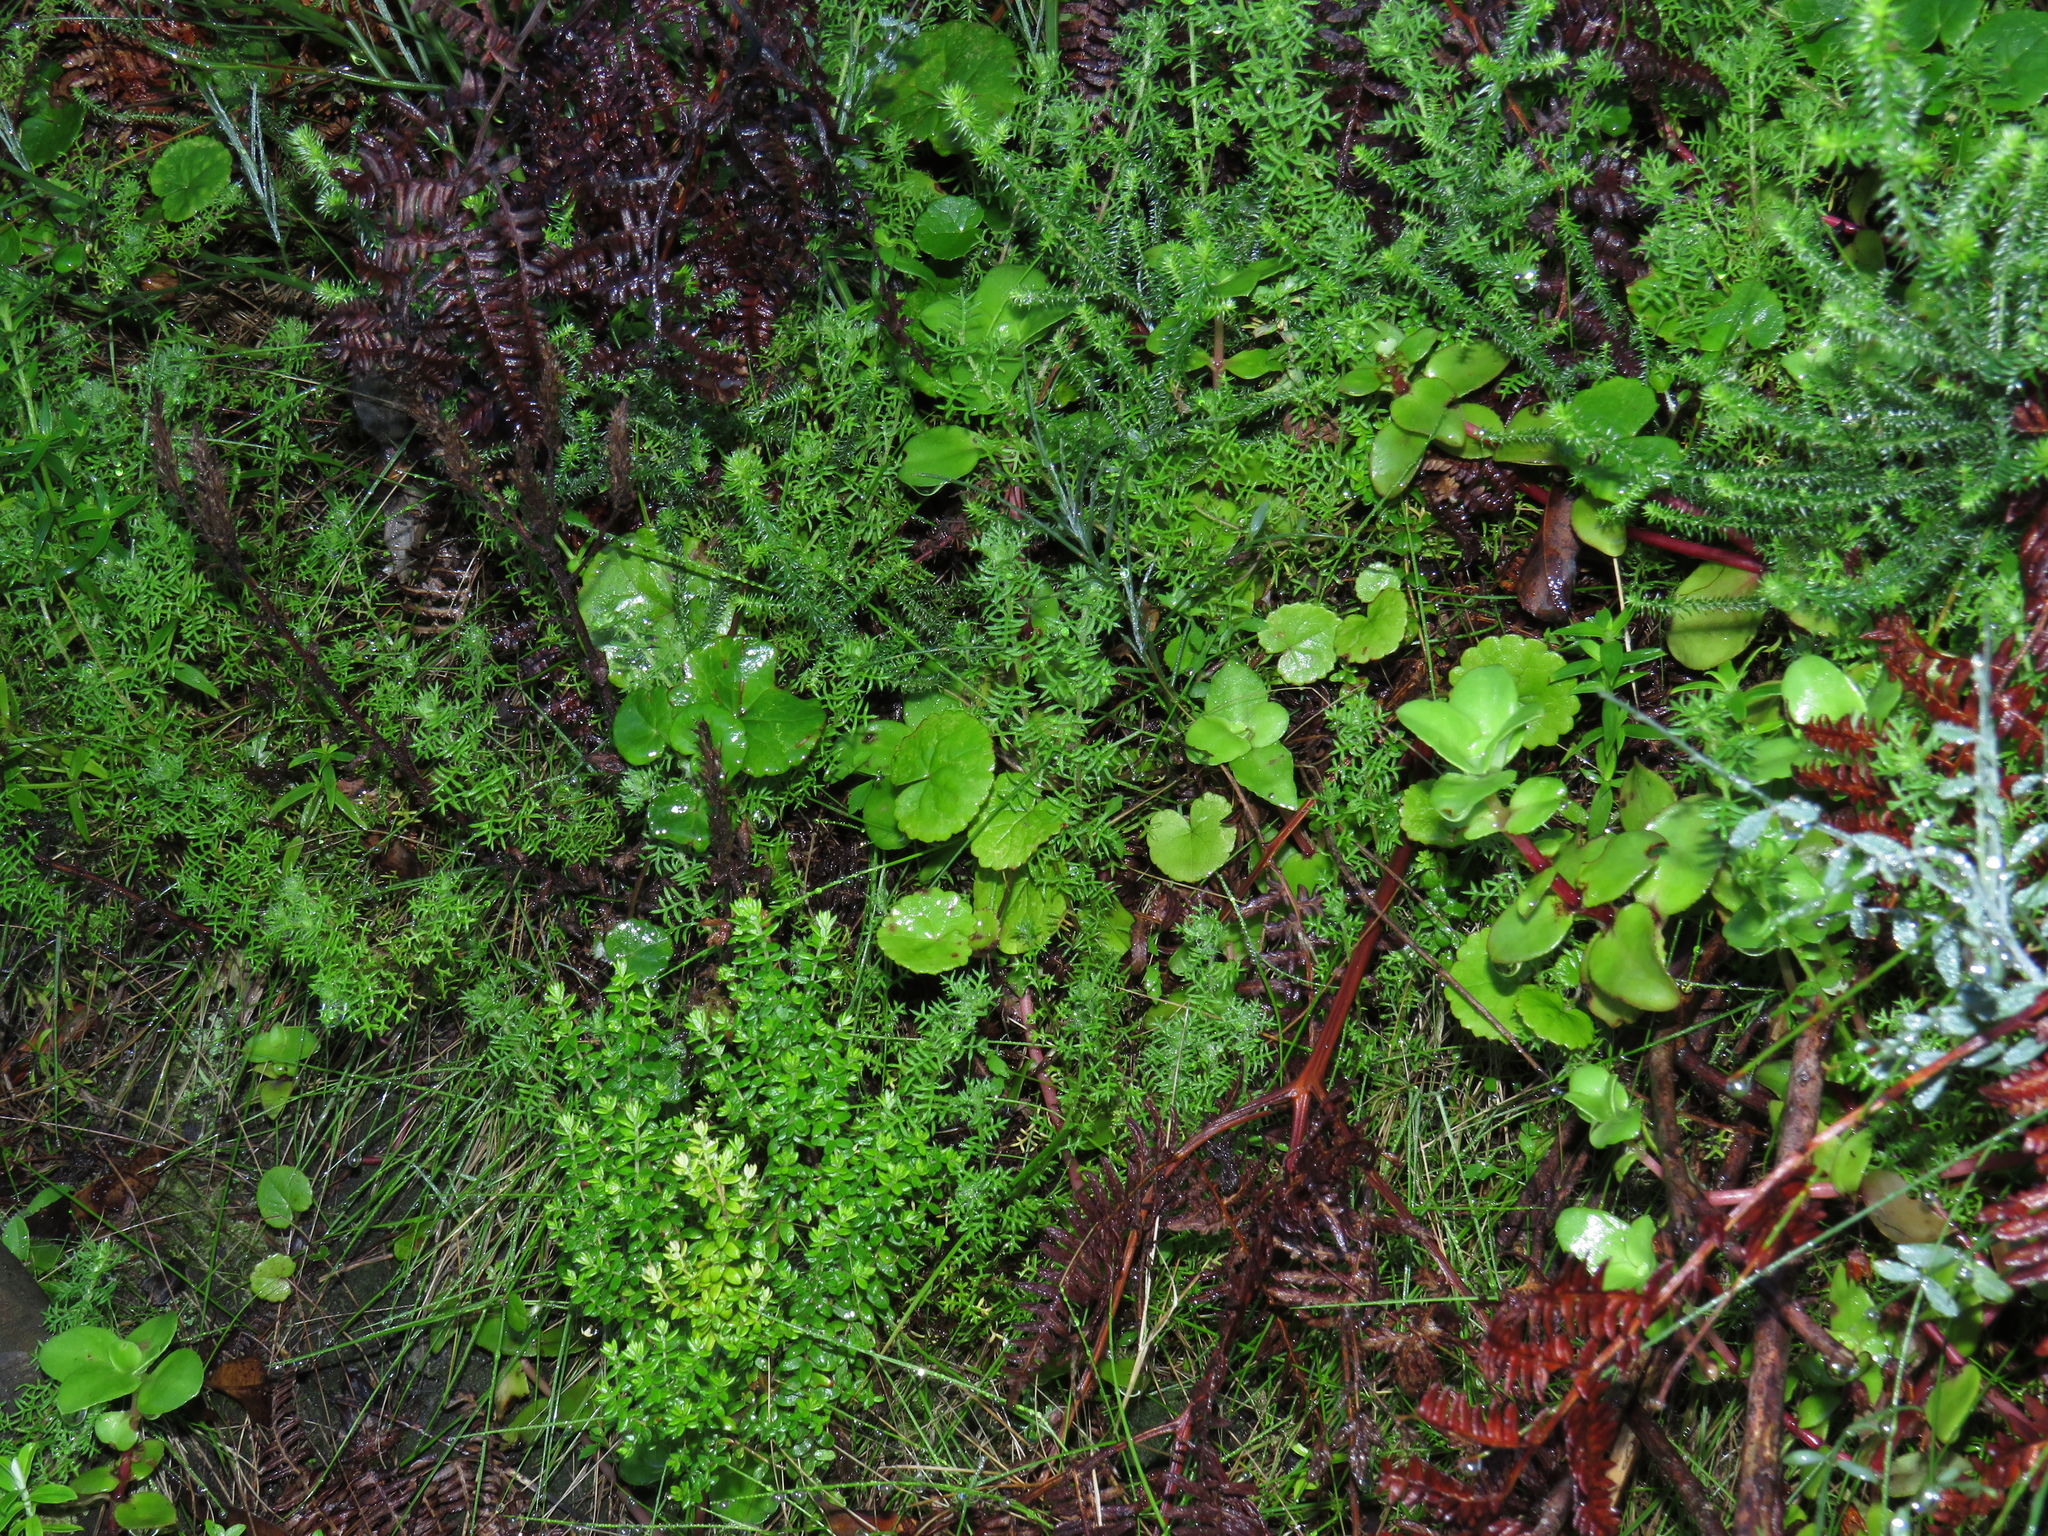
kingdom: Plantae
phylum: Tracheophyta
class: Magnoliopsida
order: Asterales
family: Asteraceae
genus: Hippia
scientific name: Hippia pilosa
